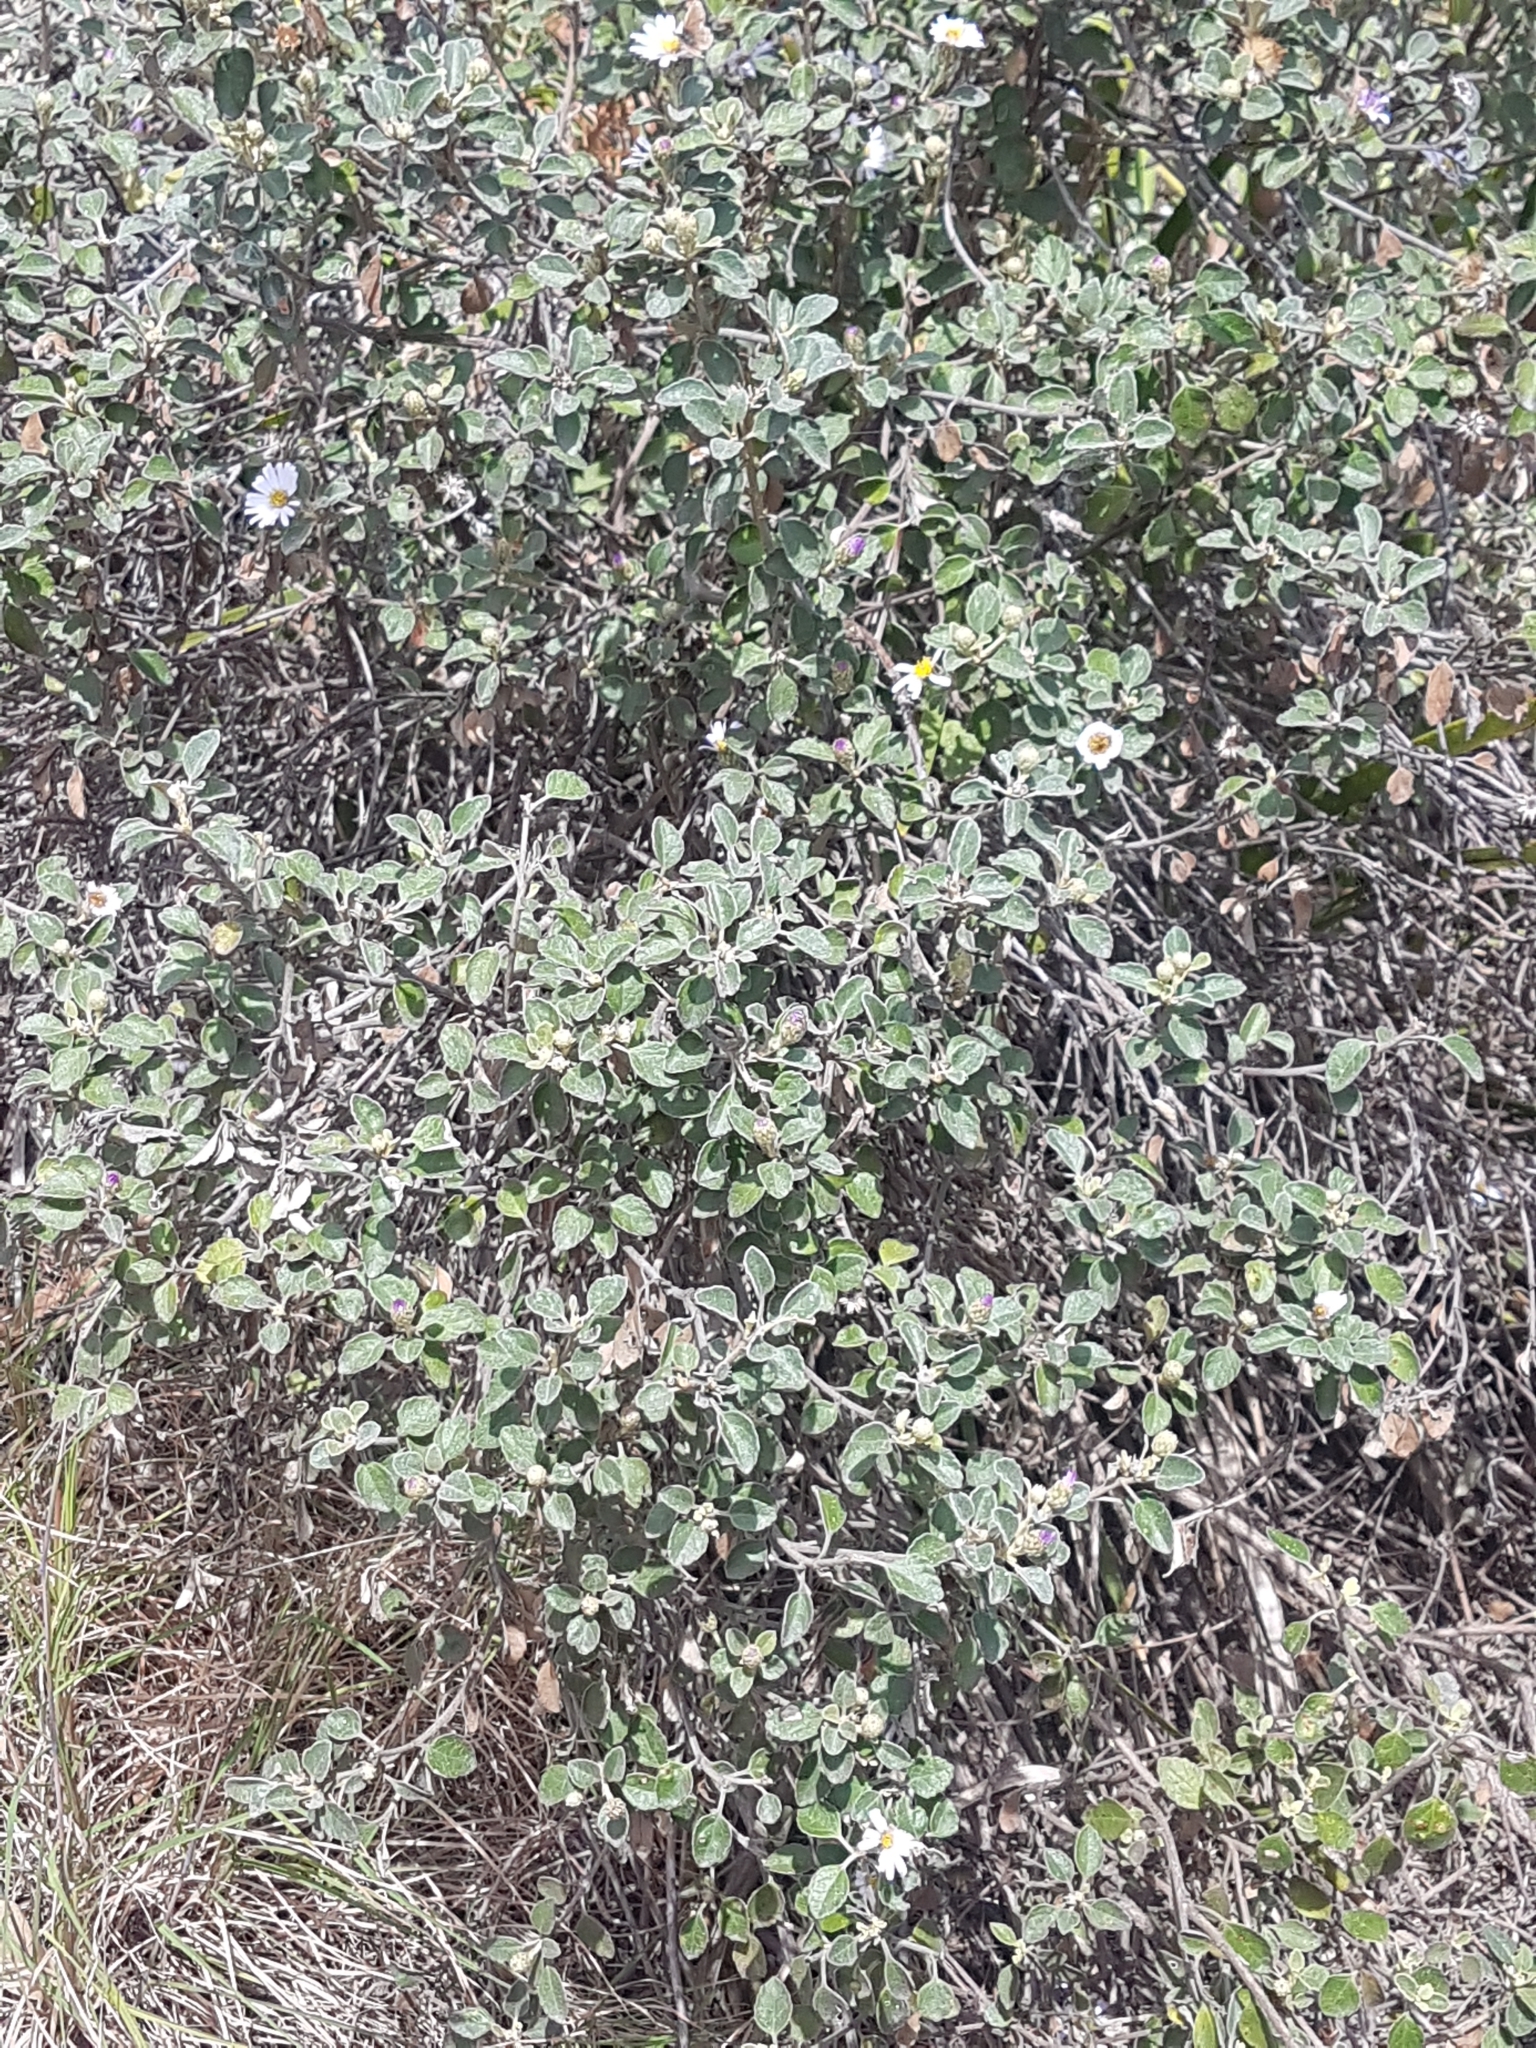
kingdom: Plantae
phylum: Tracheophyta
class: Magnoliopsida
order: Asterales
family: Asteraceae
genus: Olearia
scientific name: Olearia tomentosa
